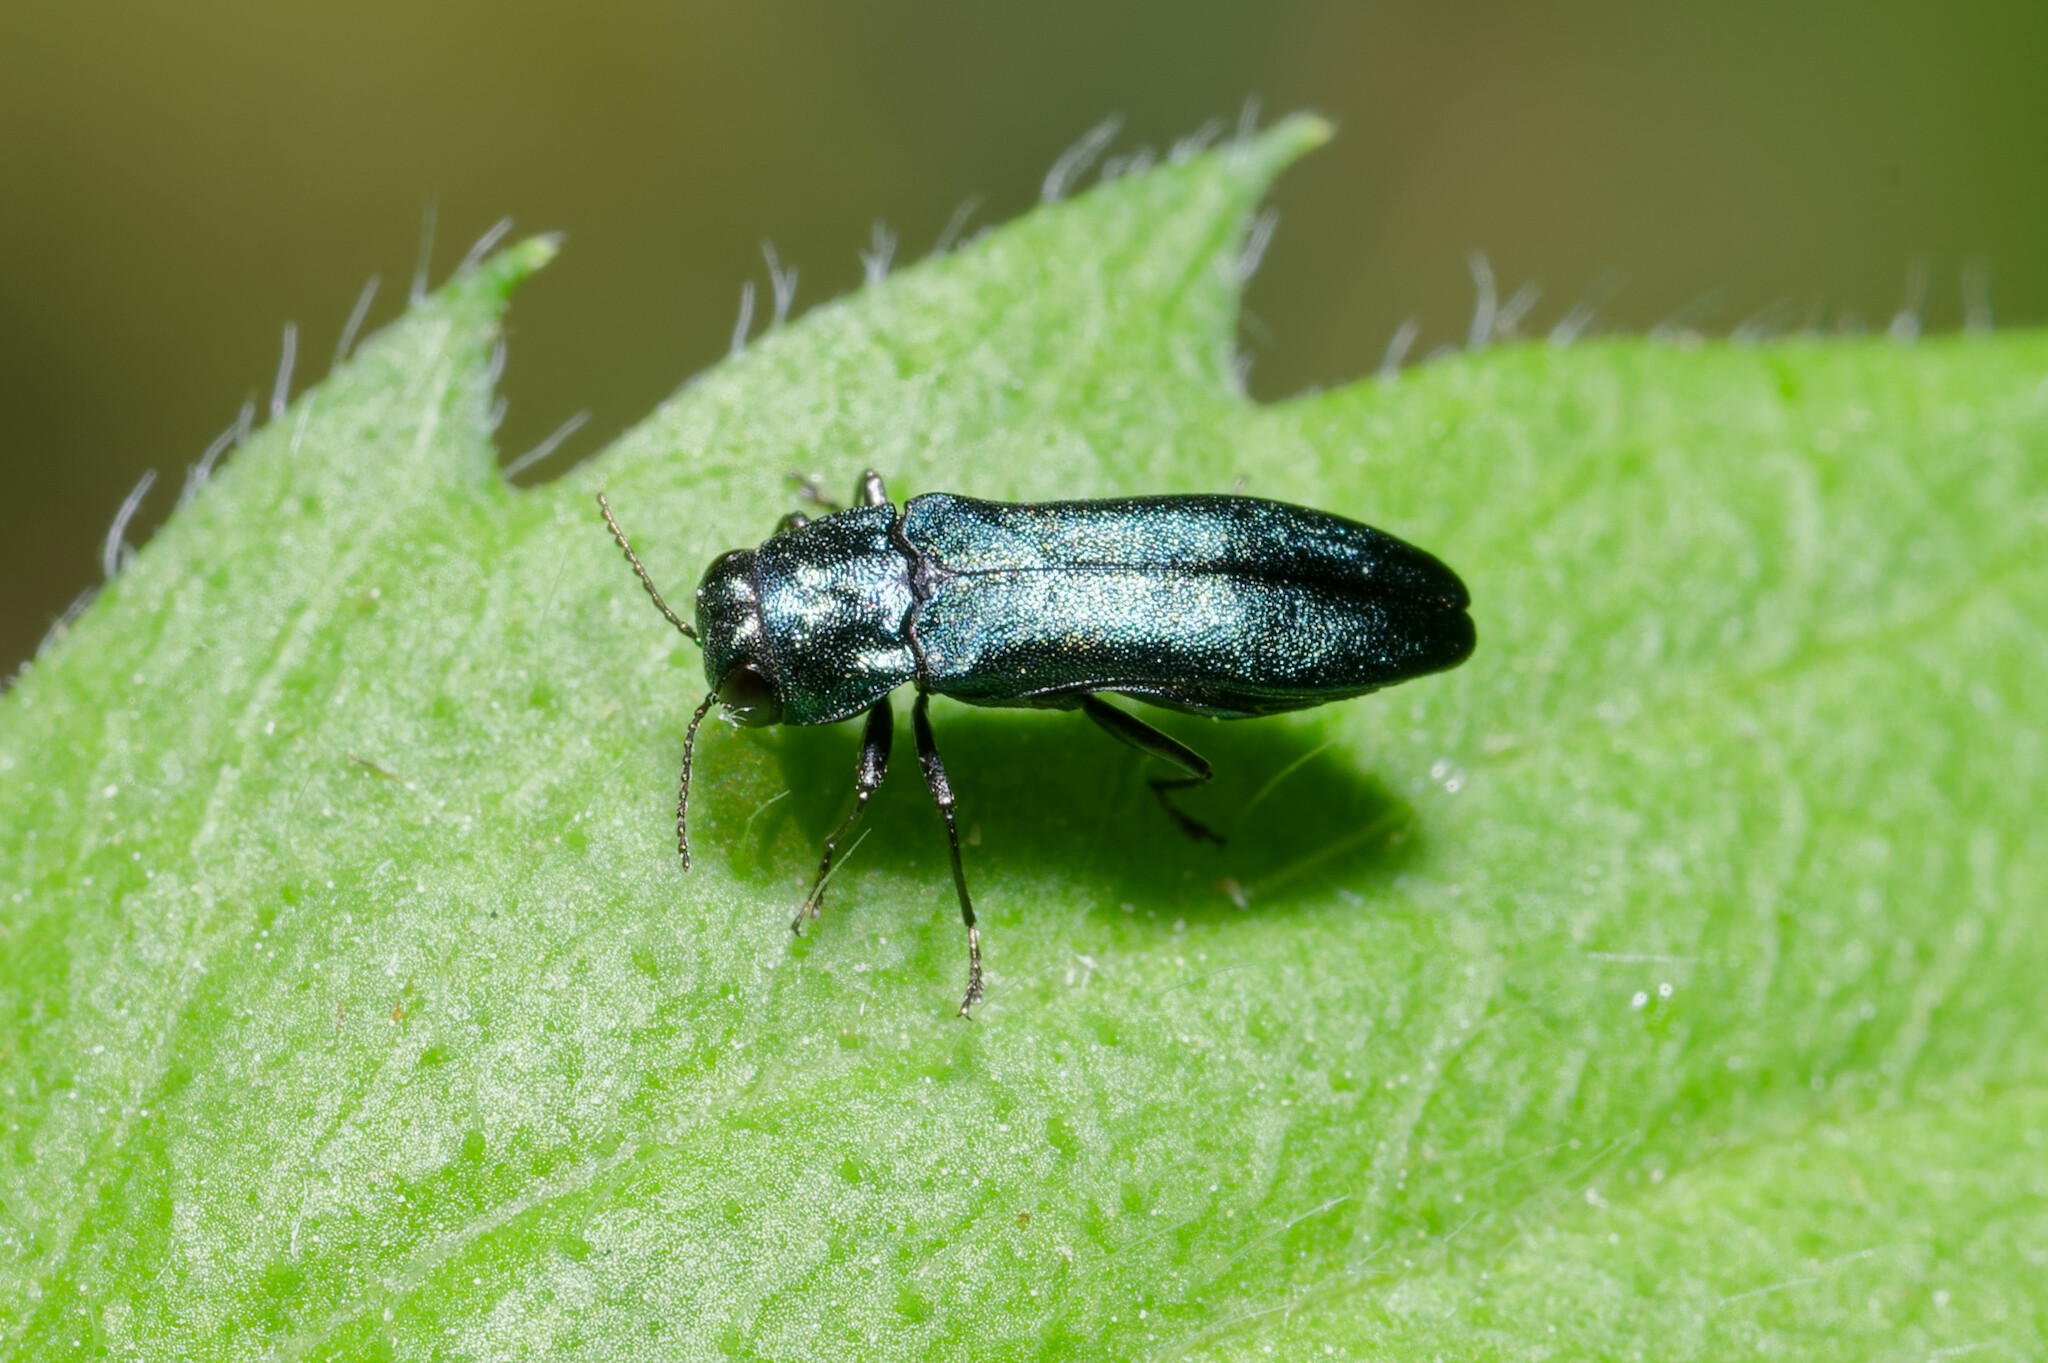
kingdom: Animalia
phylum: Arthropoda
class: Insecta
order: Coleoptera
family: Buprestidae
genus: Agrilus
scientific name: Agrilus cyanescens
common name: Bluish borer beetle
